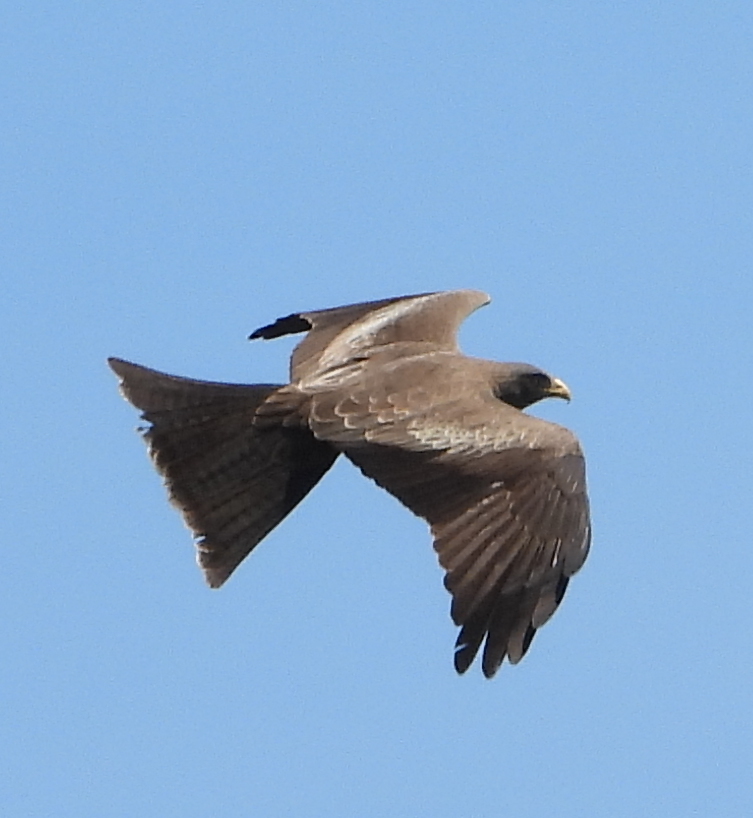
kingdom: Animalia
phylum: Chordata
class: Aves
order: Accipitriformes
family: Accipitridae
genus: Milvus
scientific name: Milvus migrans
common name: Black kite
